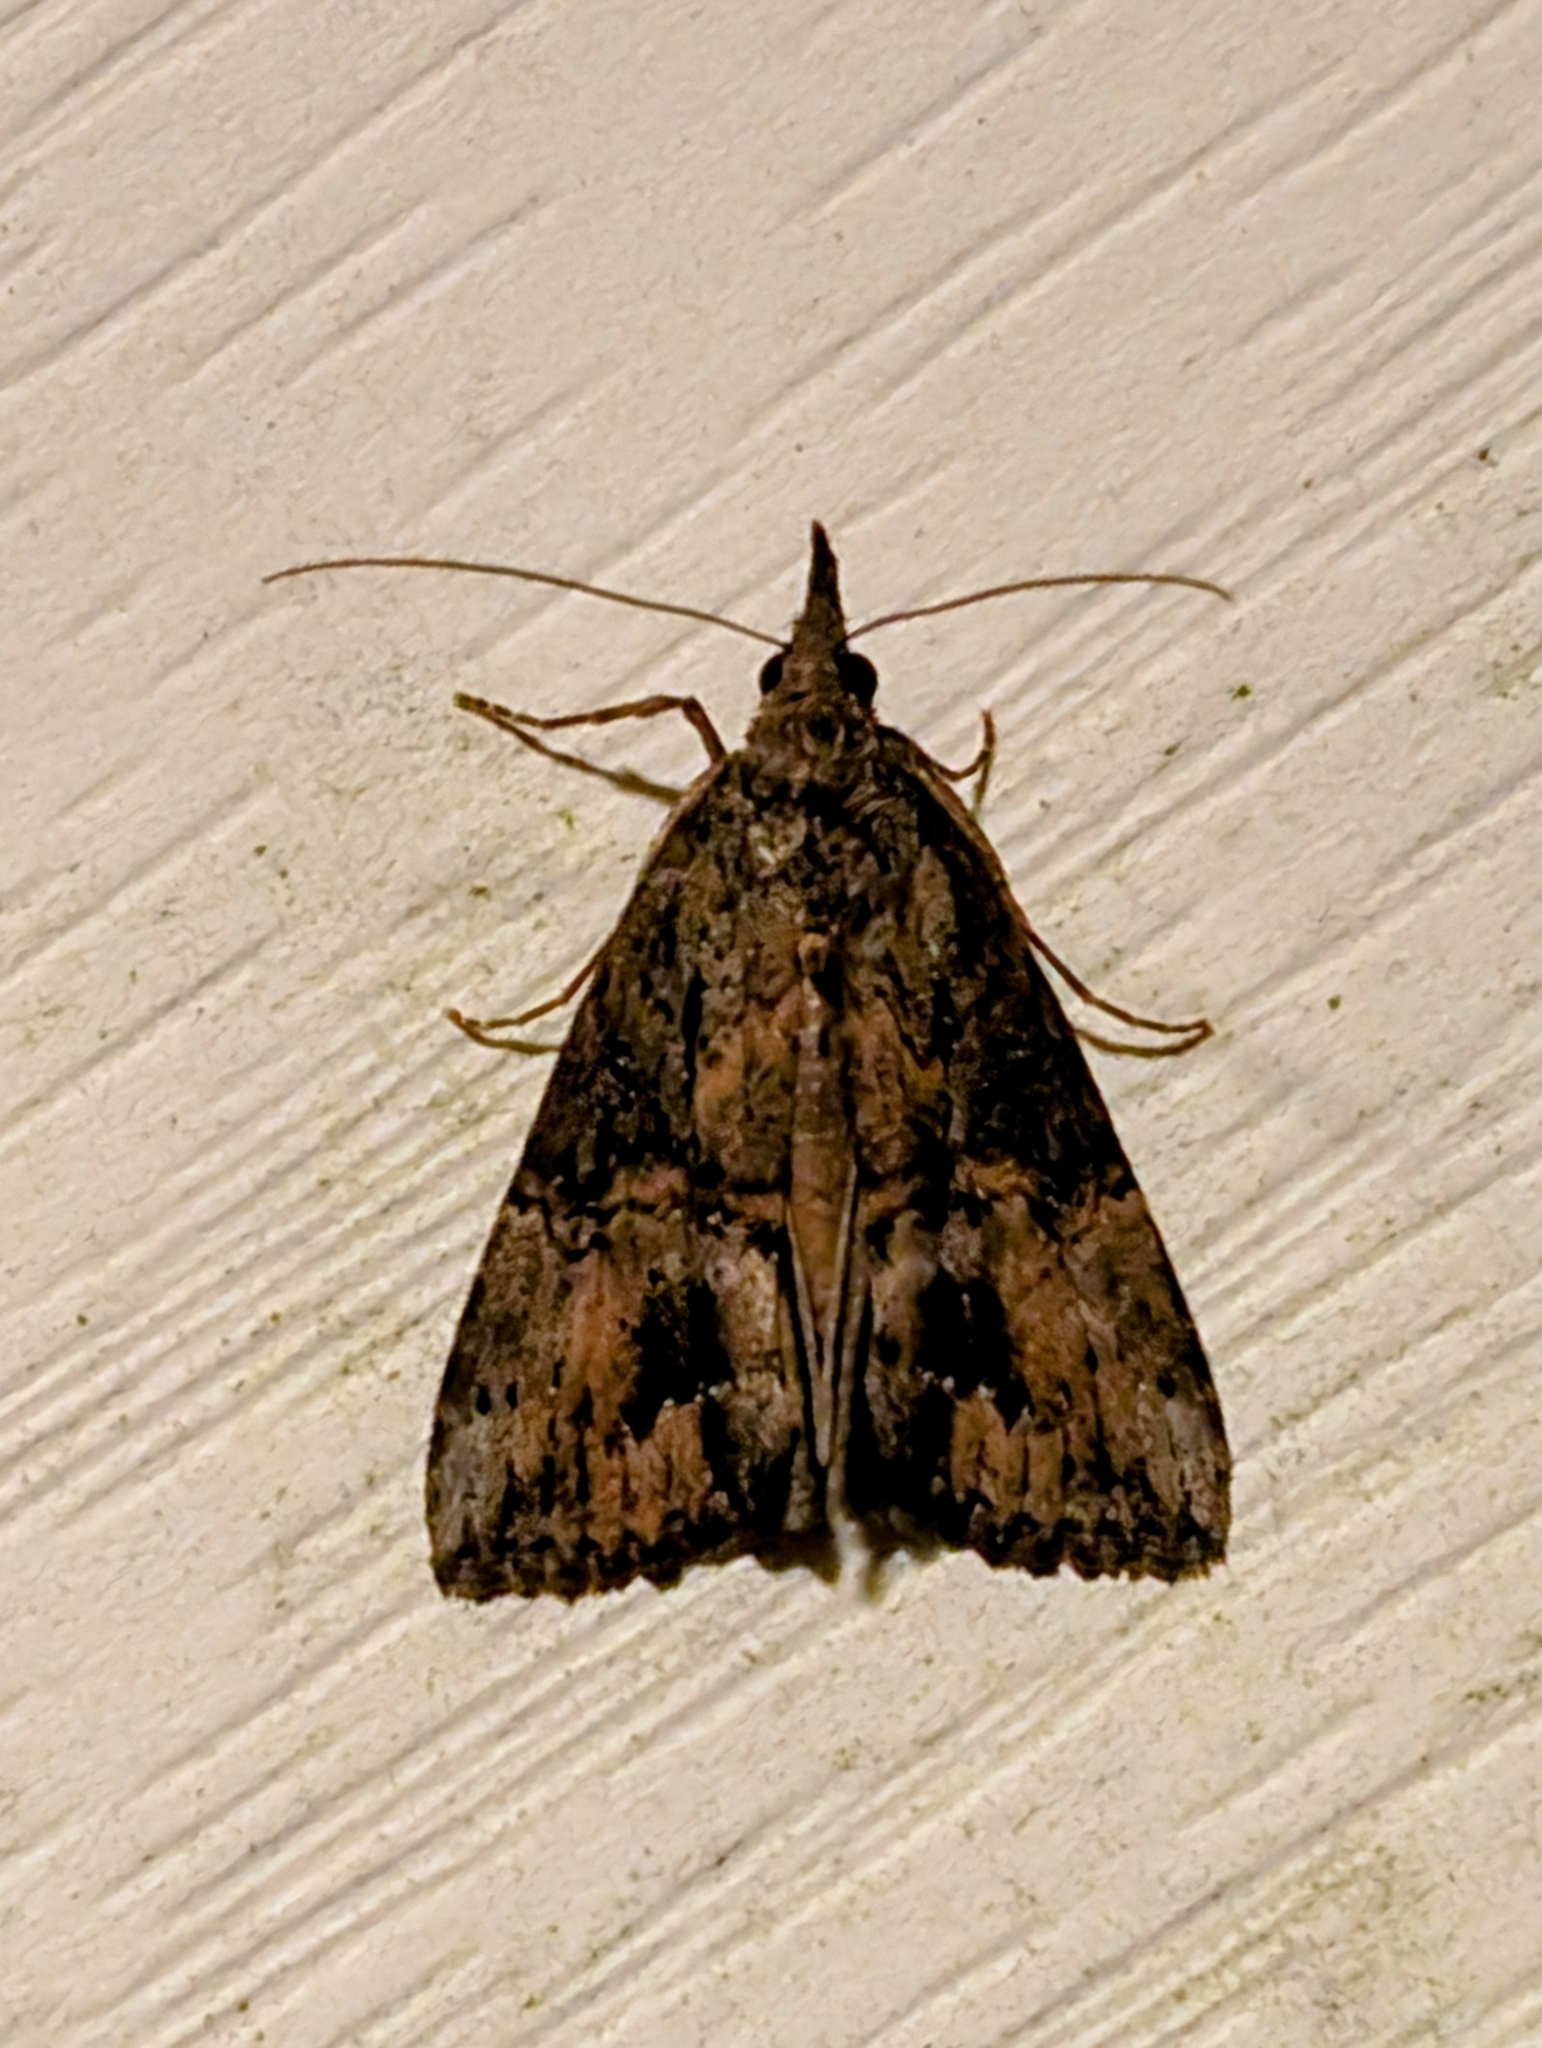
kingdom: Animalia
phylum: Arthropoda
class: Insecta
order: Lepidoptera
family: Erebidae
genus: Hypena
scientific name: Hypena scabra
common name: Green cloverworm
